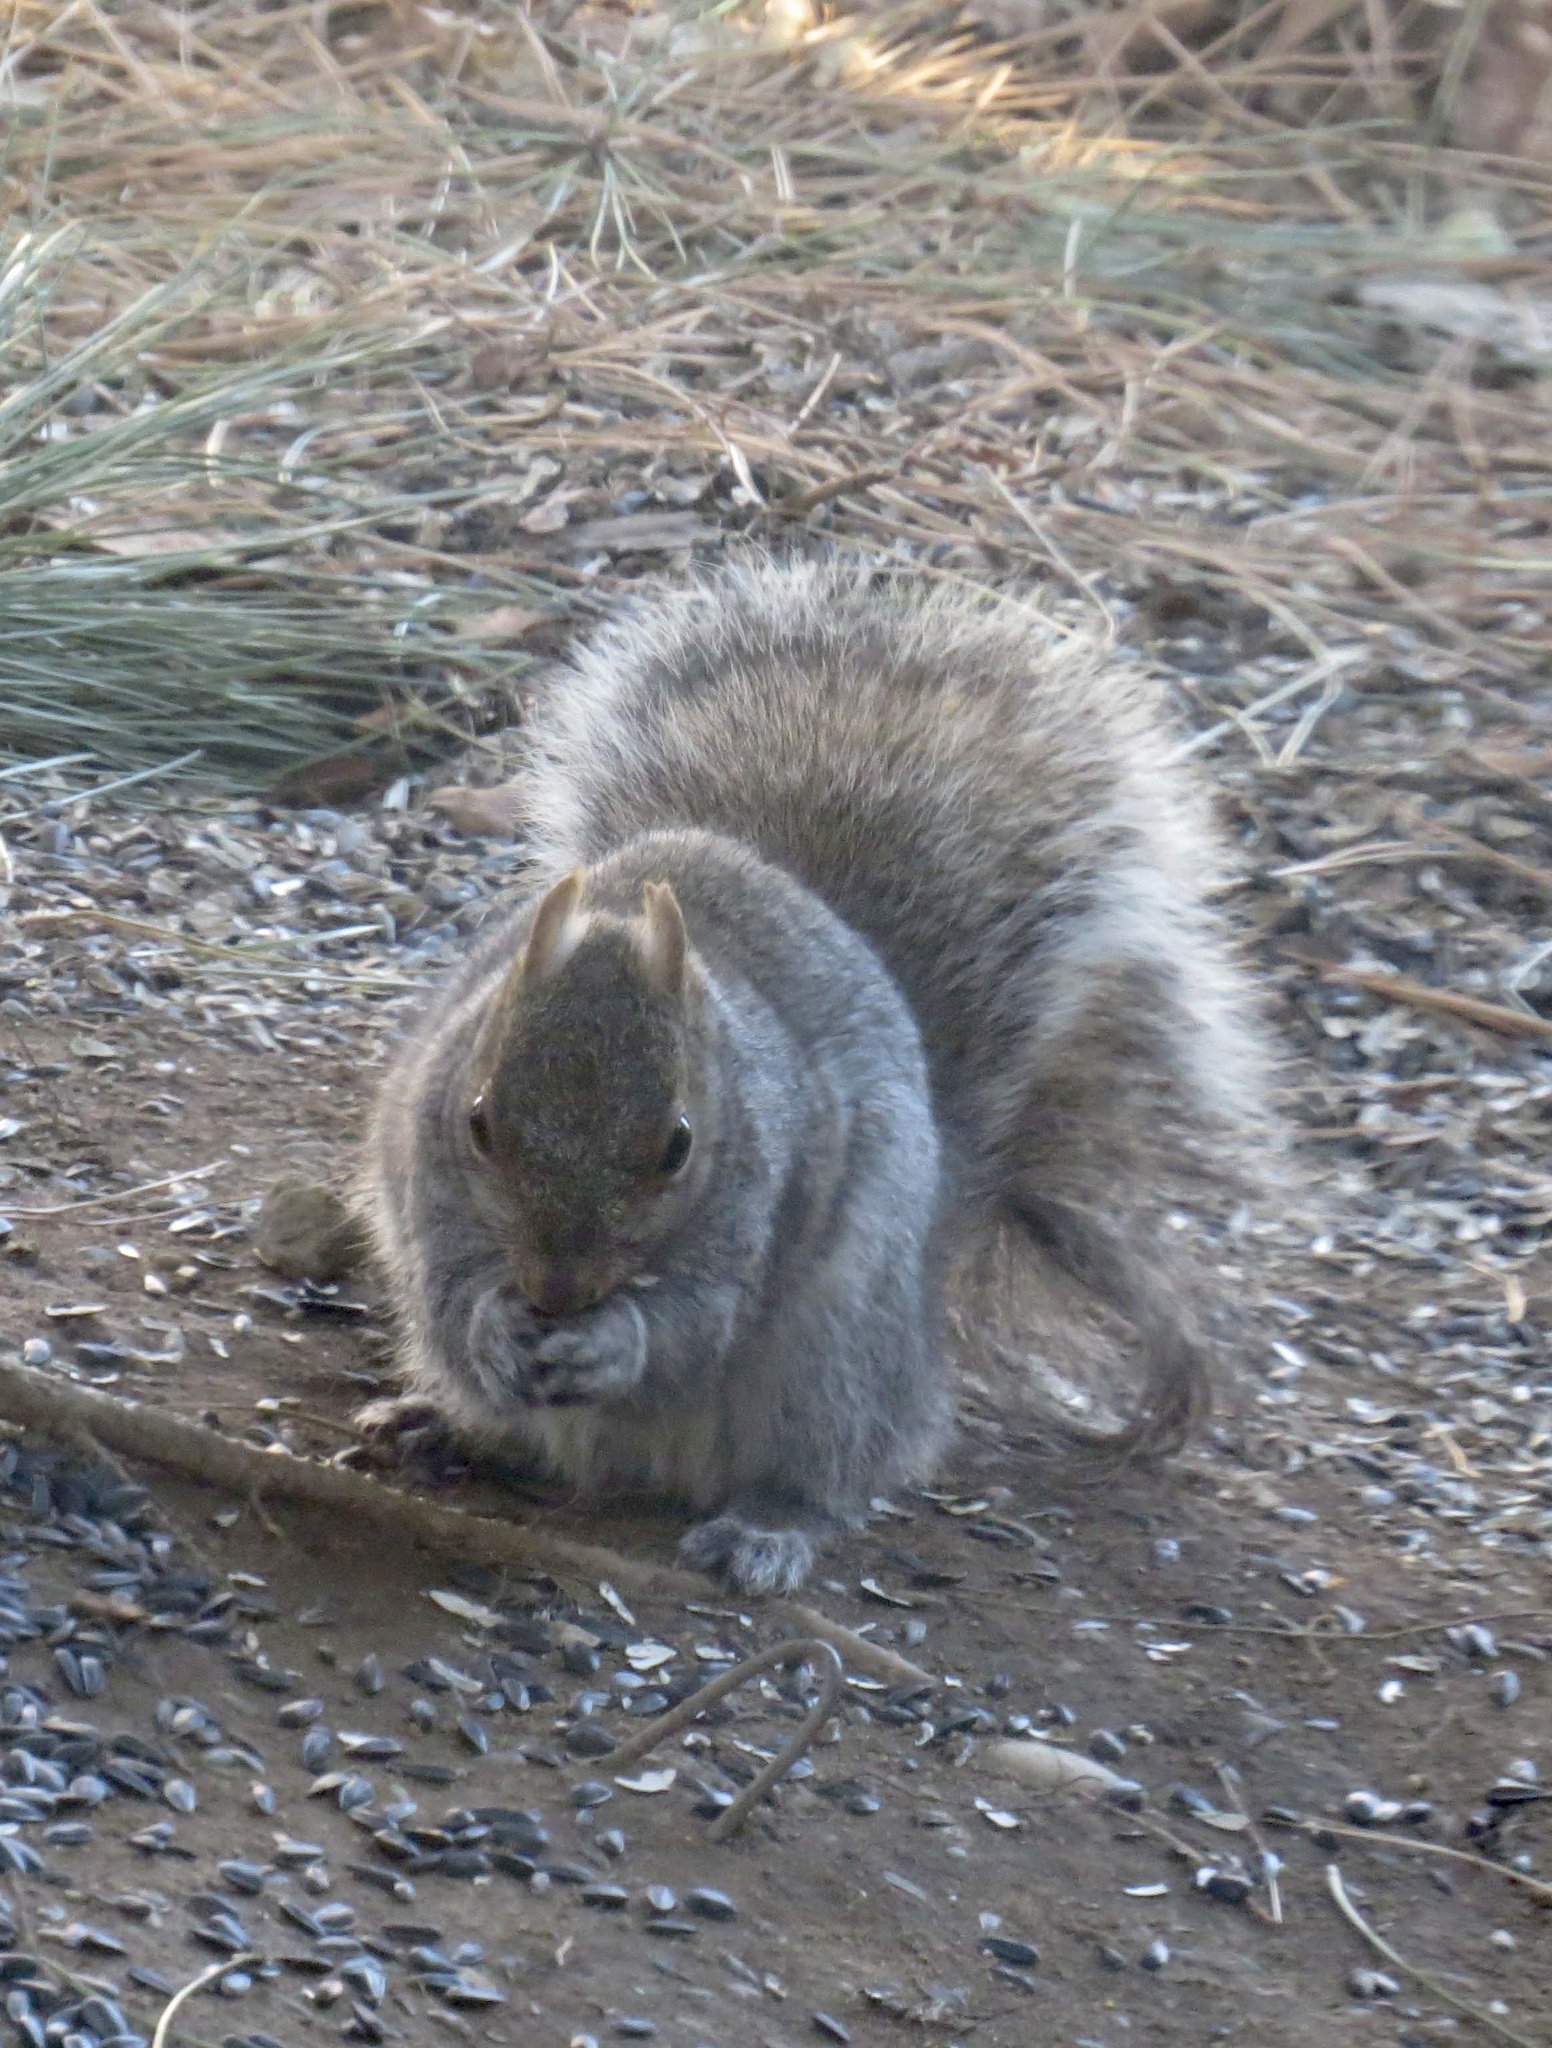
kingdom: Animalia
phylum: Chordata
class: Mammalia
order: Rodentia
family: Sciuridae
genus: Sciurus
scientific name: Sciurus carolinensis
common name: Eastern gray squirrel
